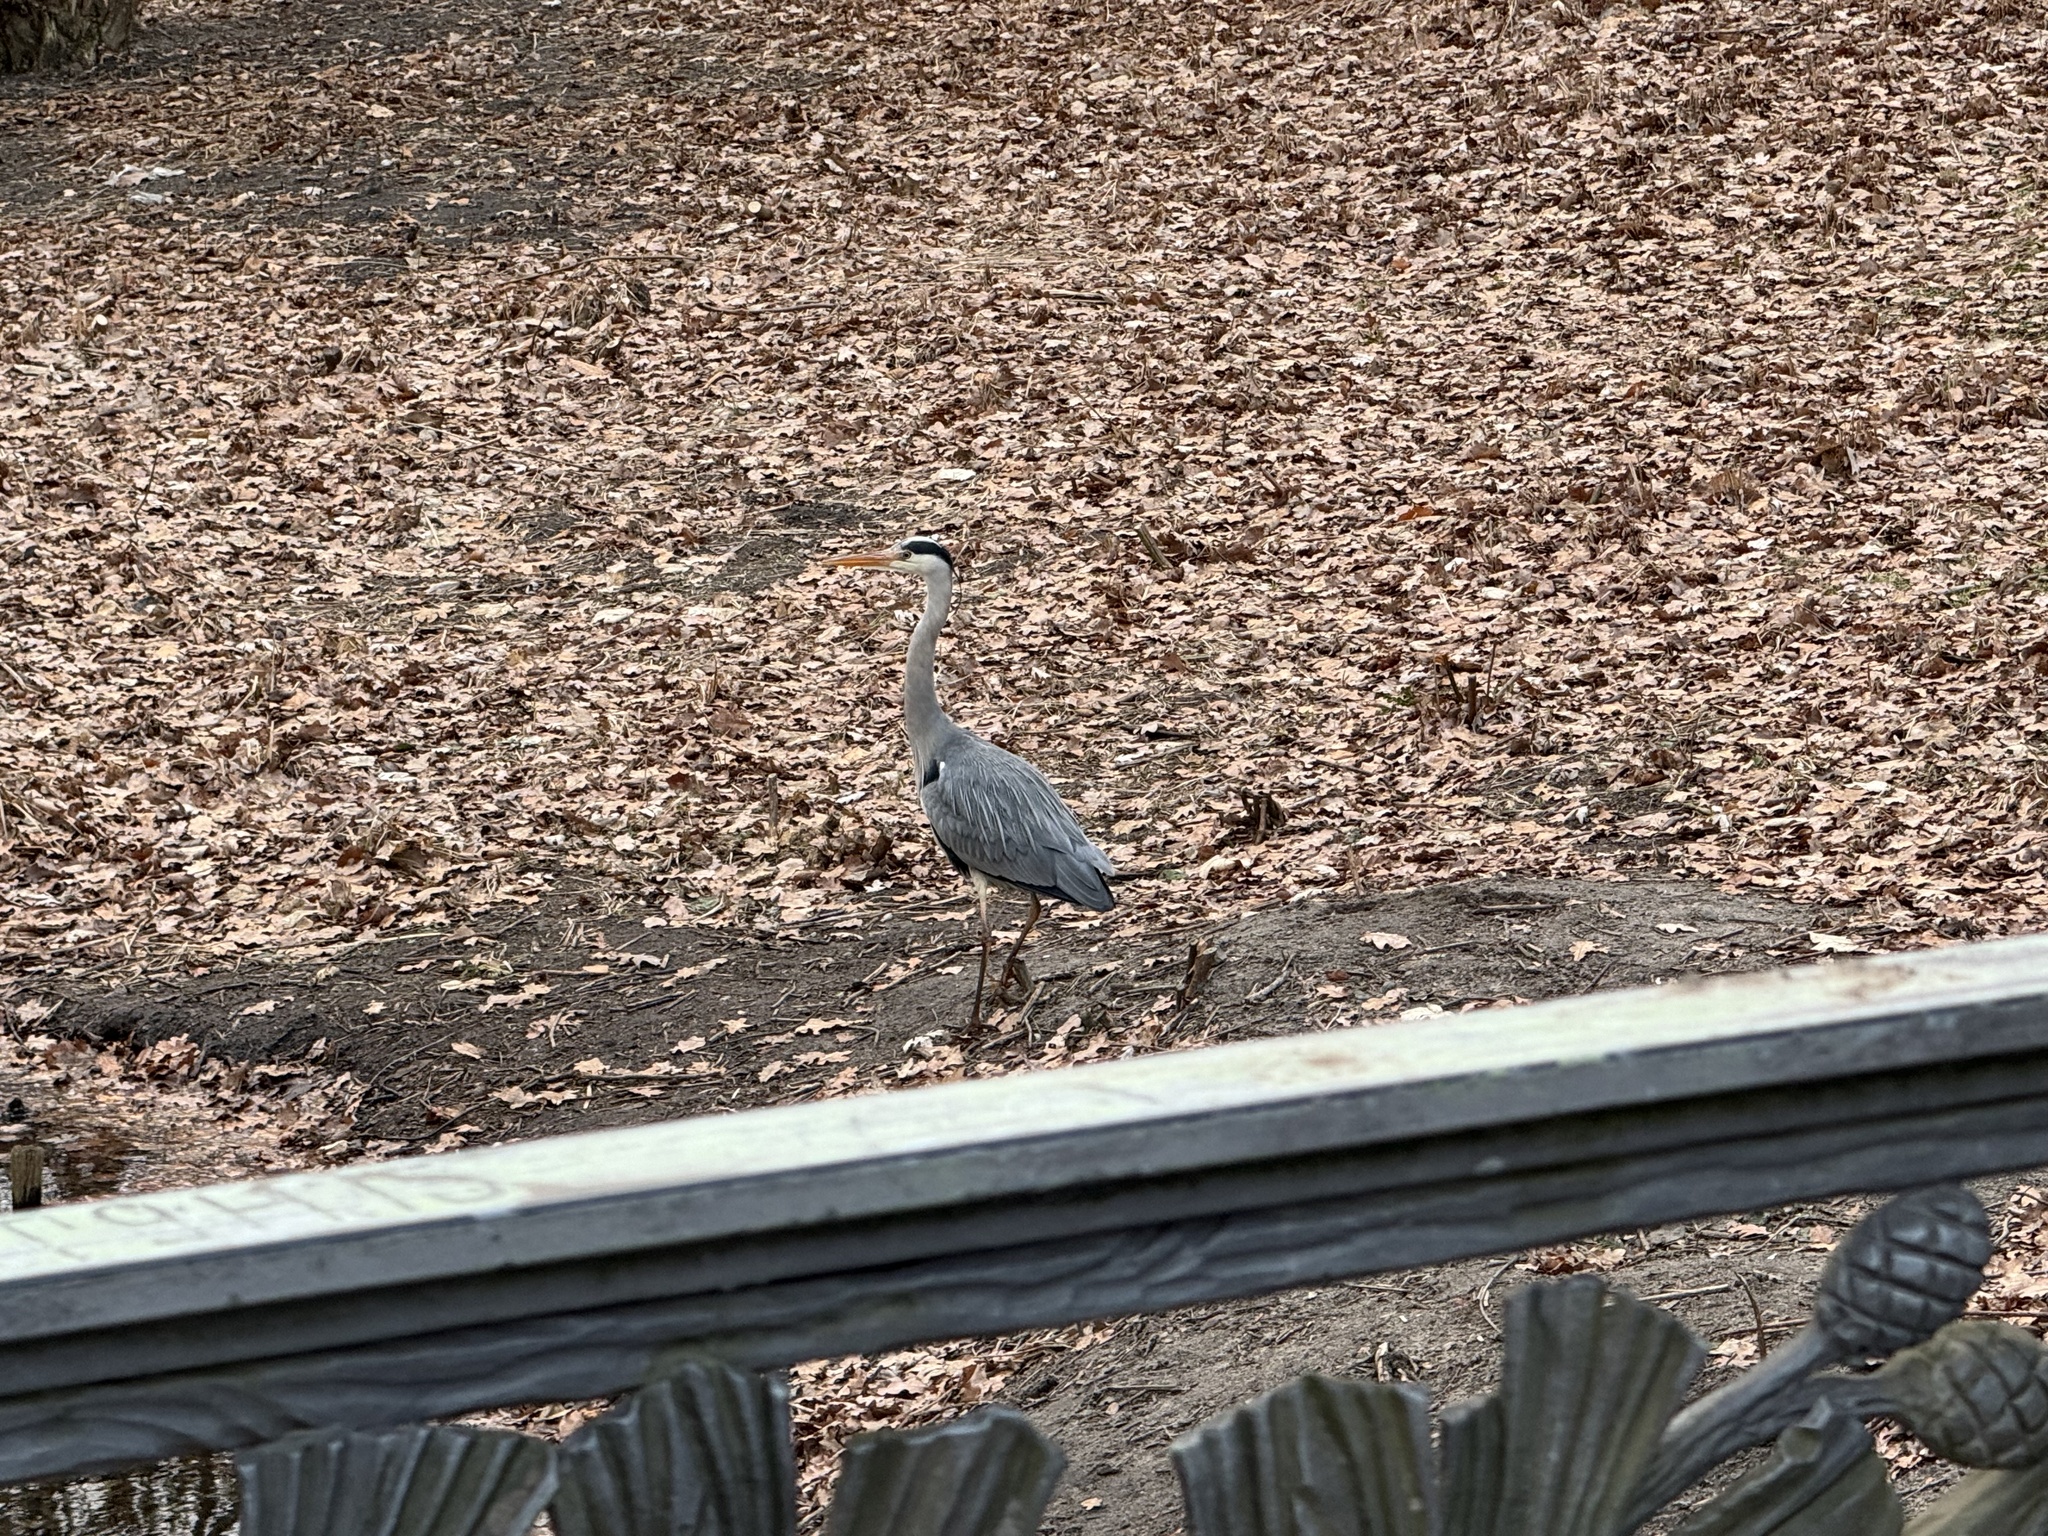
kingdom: Animalia
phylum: Chordata
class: Aves
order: Pelecaniformes
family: Ardeidae
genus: Ardea
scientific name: Ardea cinerea
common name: Grey heron
